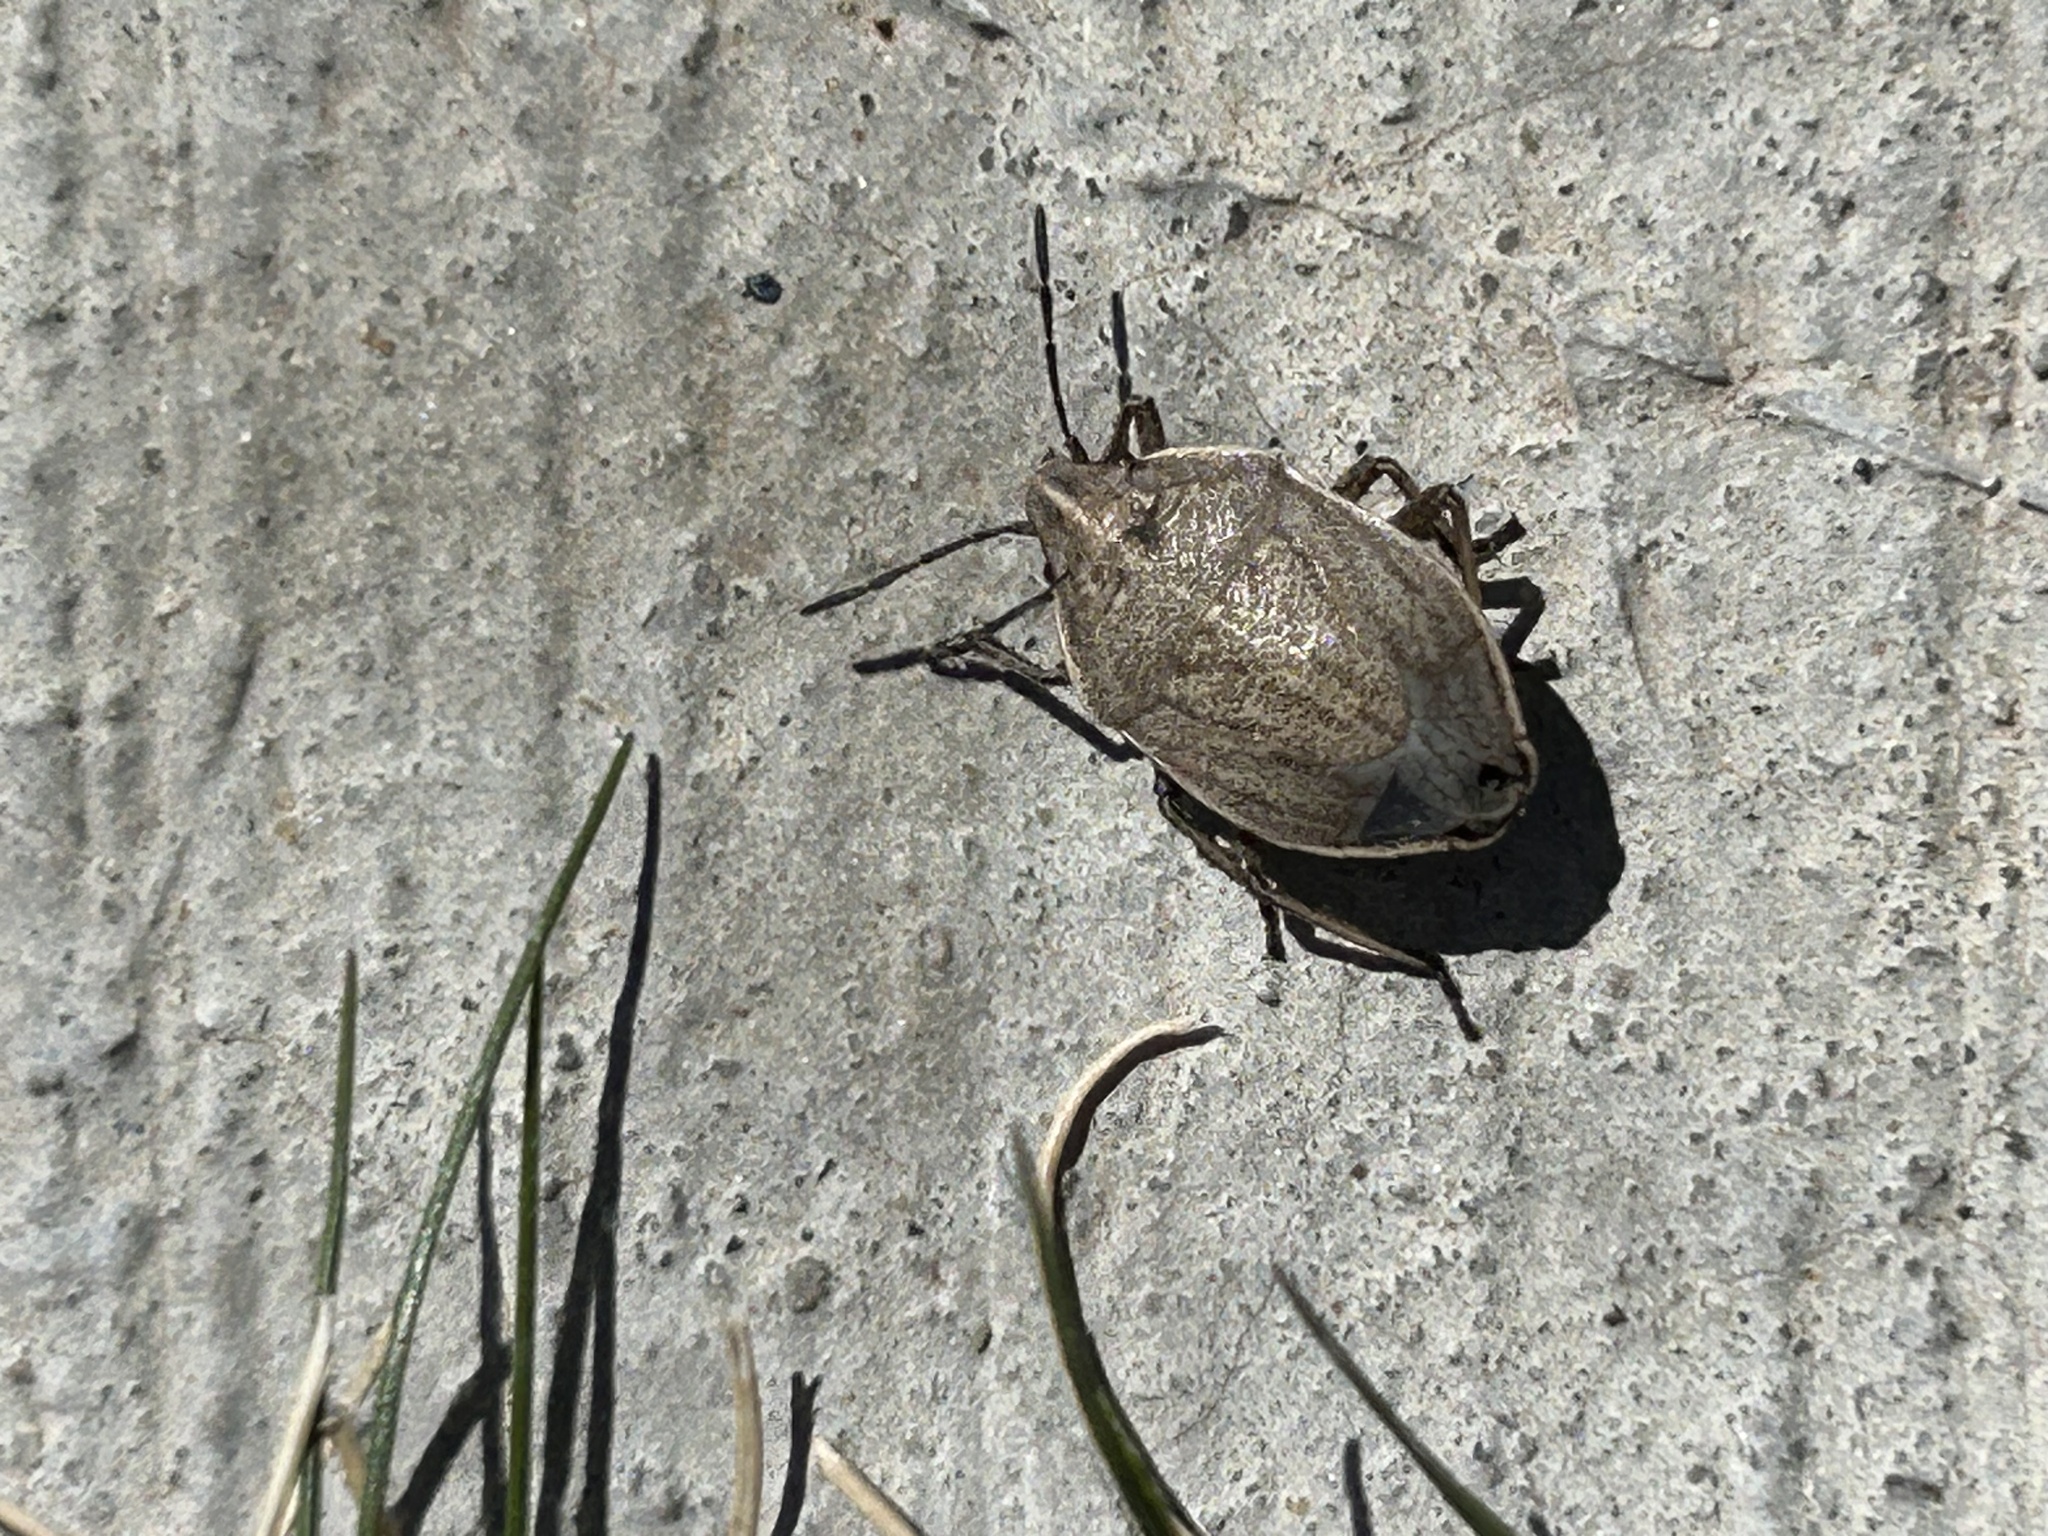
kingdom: Animalia
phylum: Arthropoda
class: Insecta
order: Hemiptera
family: Pentatomidae
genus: Coenus
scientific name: Coenus delius
